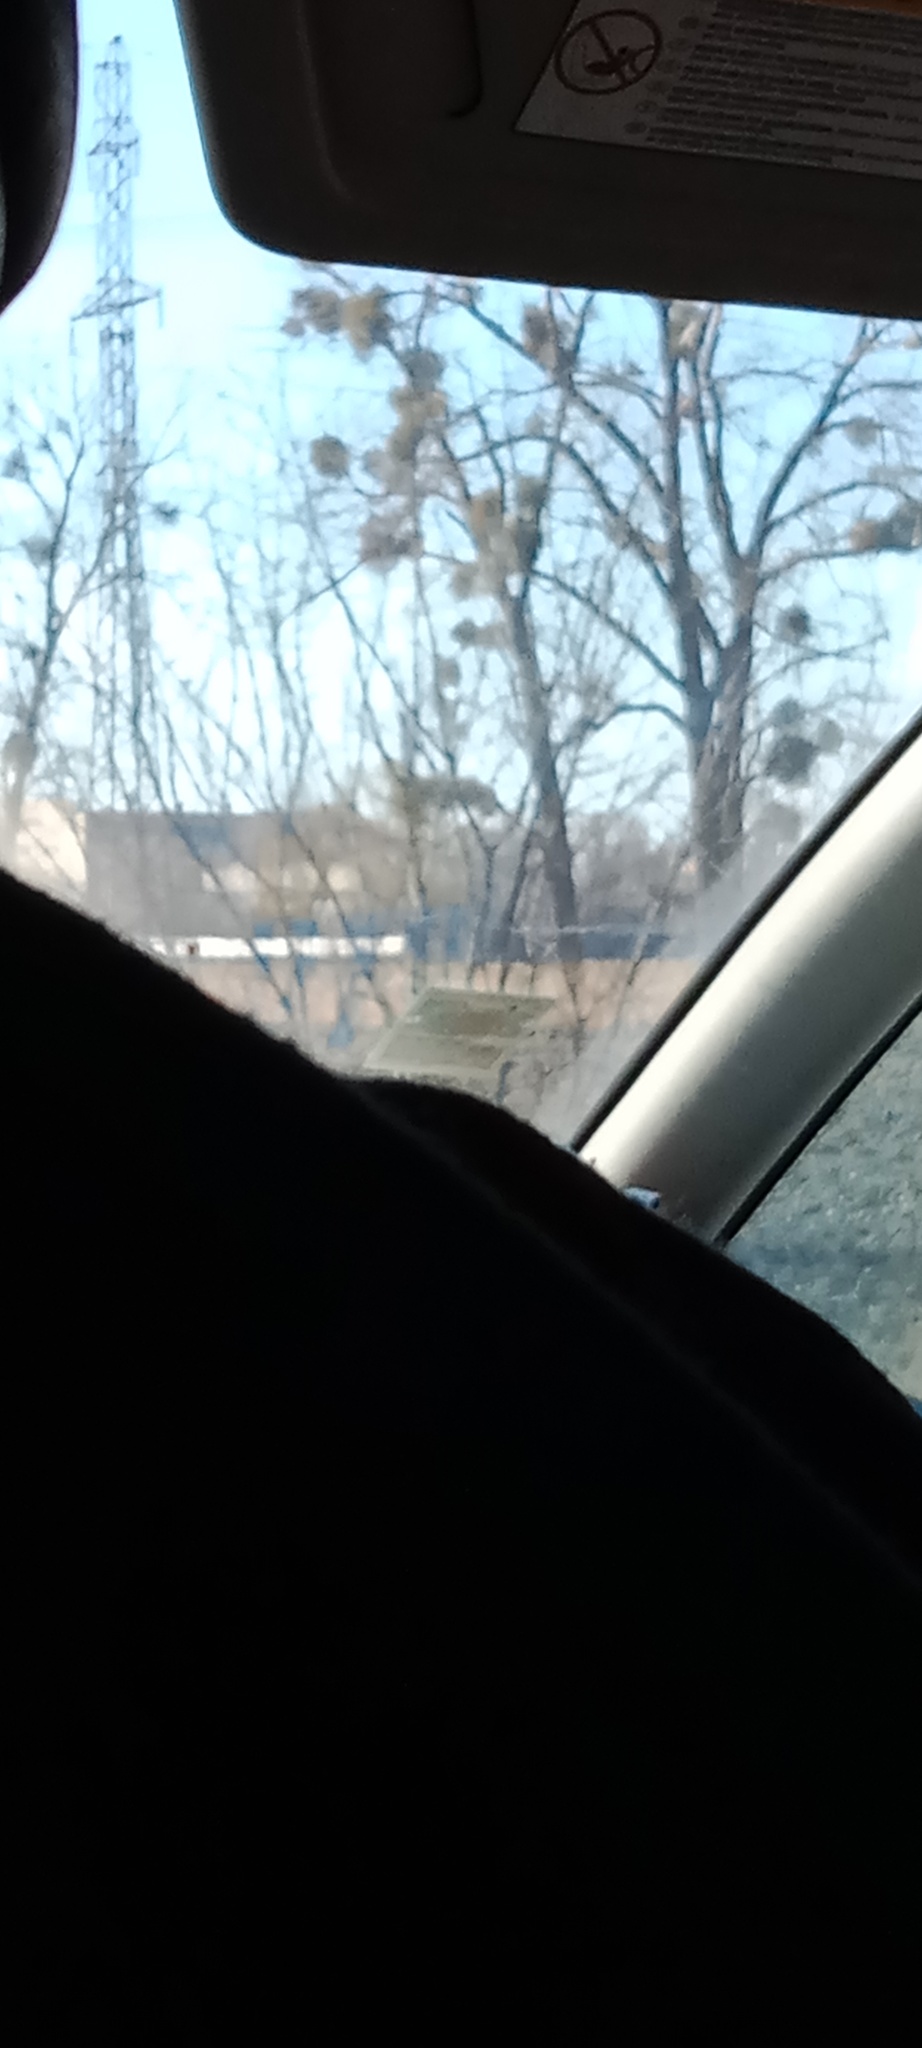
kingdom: Plantae
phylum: Tracheophyta
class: Magnoliopsida
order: Santalales
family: Viscaceae
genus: Viscum
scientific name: Viscum album
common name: Mistletoe
